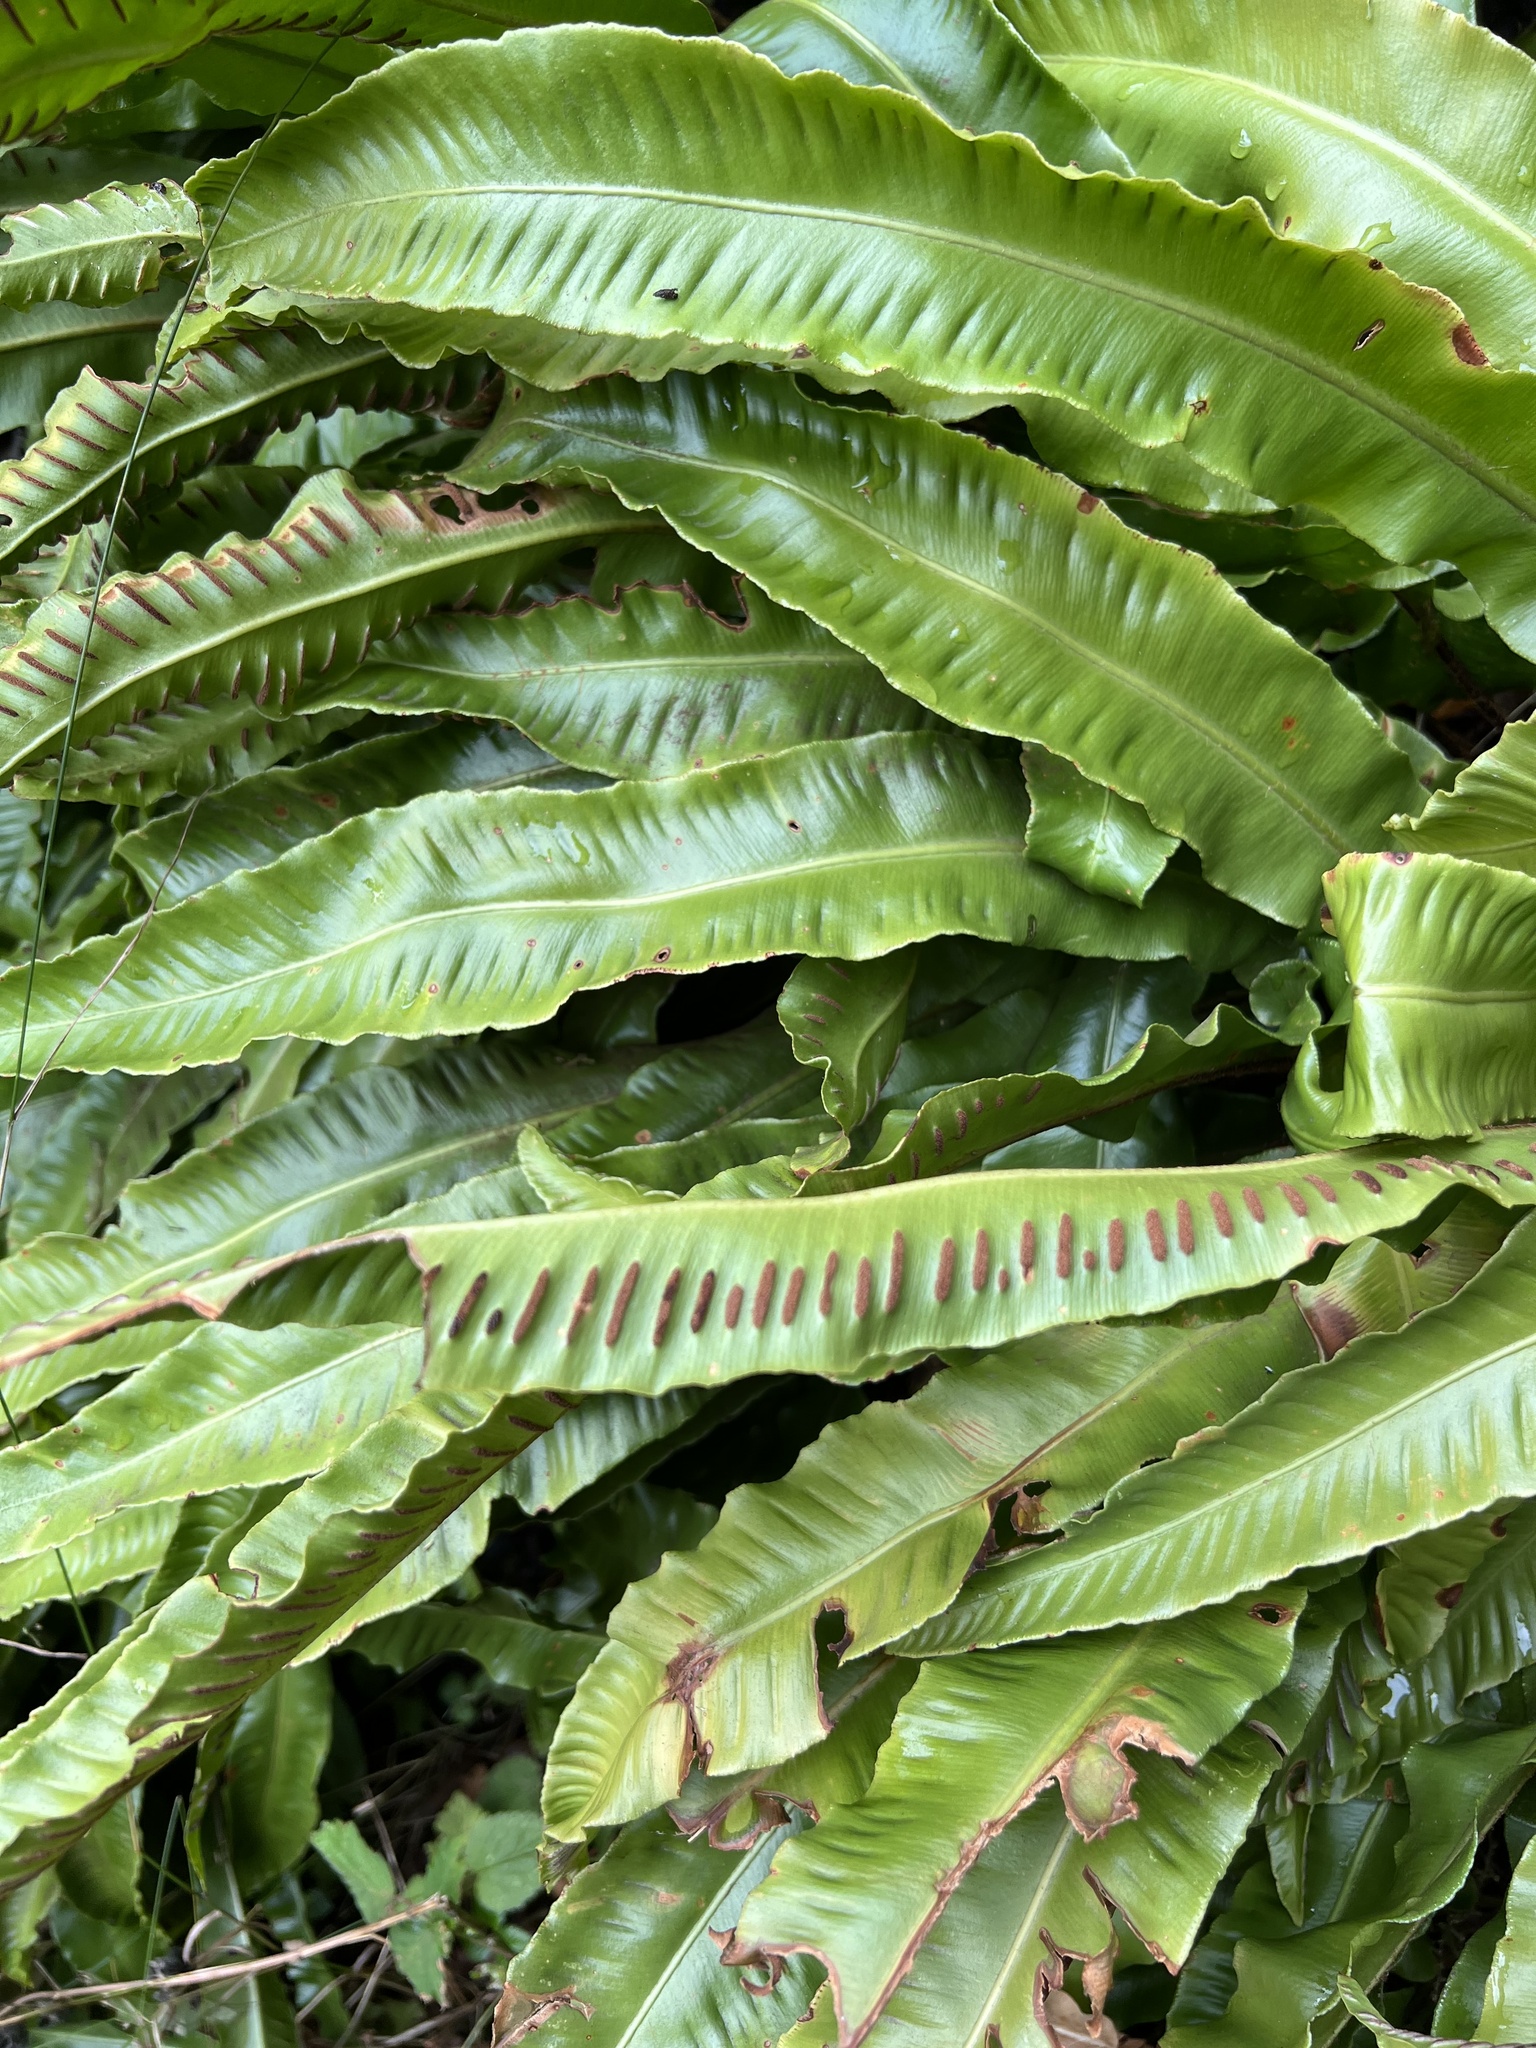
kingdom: Plantae
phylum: Tracheophyta
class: Polypodiopsida
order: Polypodiales
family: Aspleniaceae
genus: Asplenium
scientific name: Asplenium scolopendrium
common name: Hart's-tongue fern
